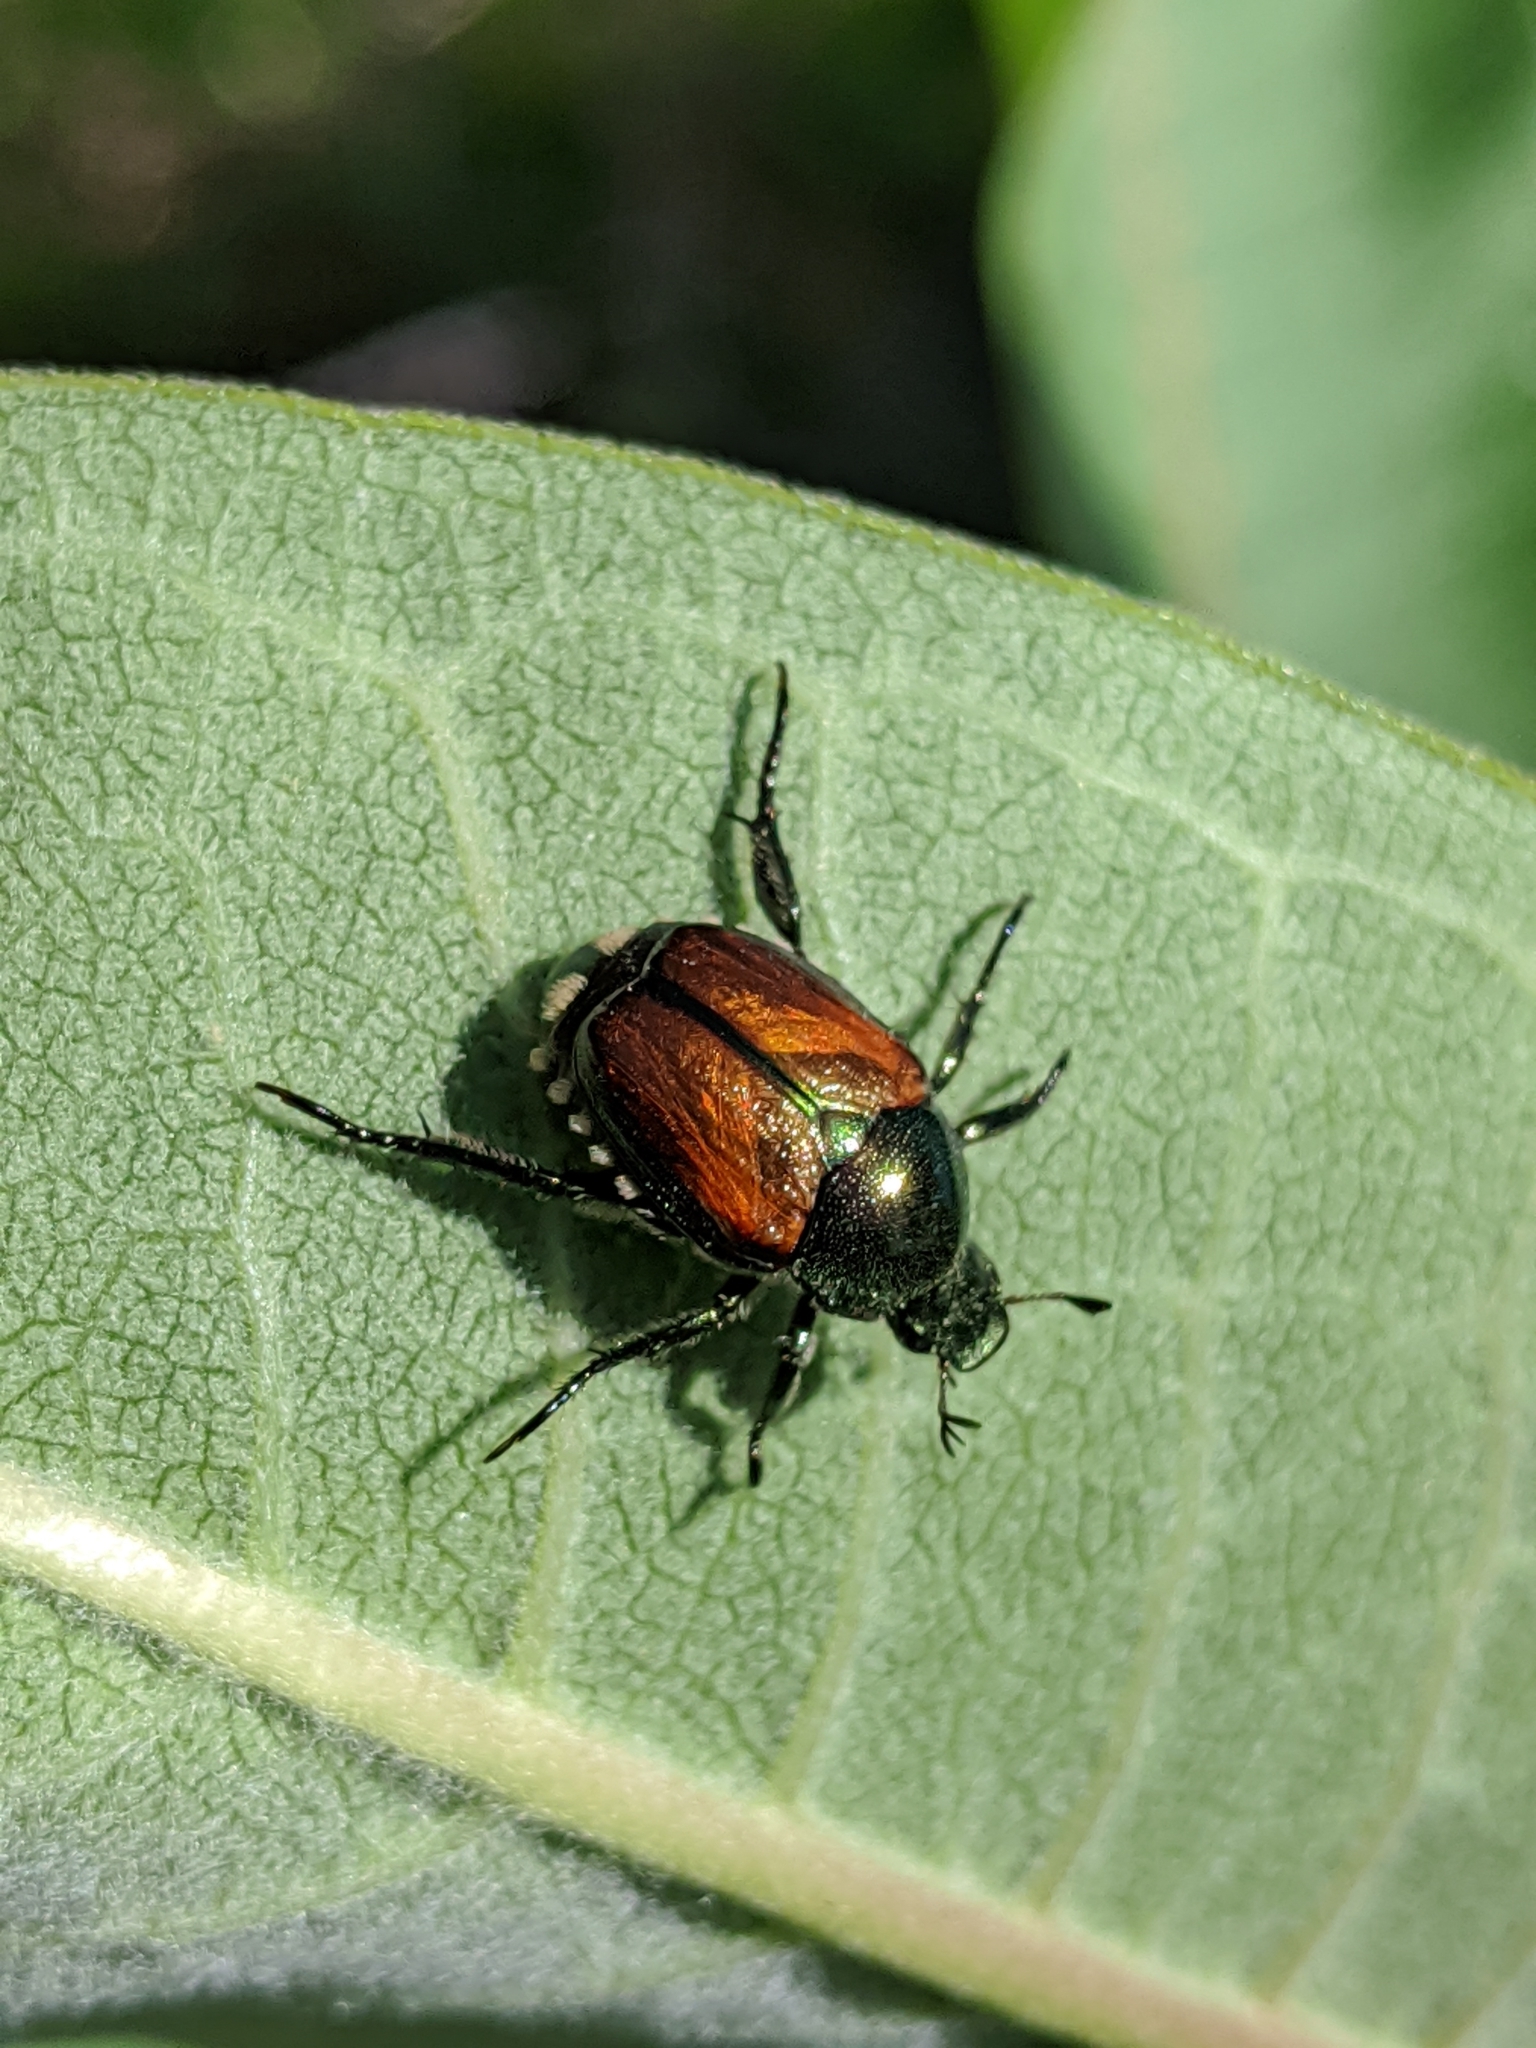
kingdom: Animalia
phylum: Arthropoda
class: Insecta
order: Coleoptera
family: Scarabaeidae
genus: Popillia
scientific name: Popillia japonica
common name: Japanese beetle
